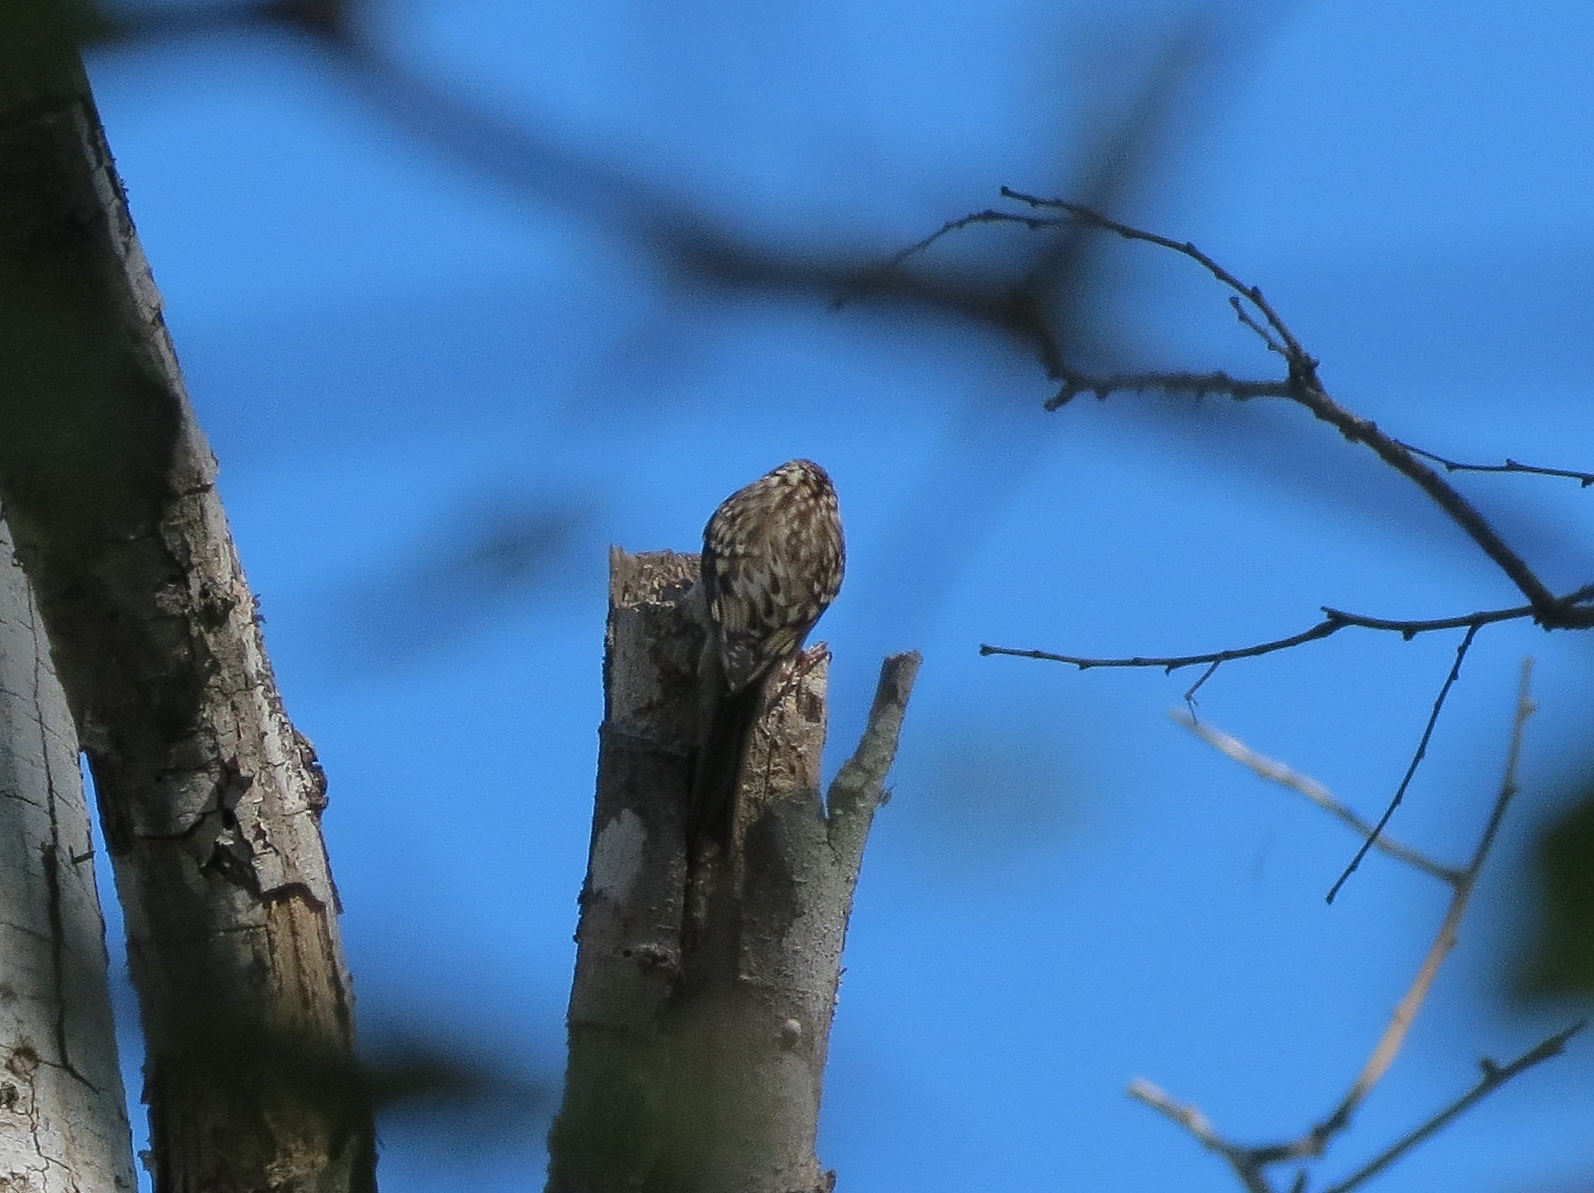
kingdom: Animalia
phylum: Chordata
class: Aves
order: Passeriformes
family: Certhiidae
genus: Certhia
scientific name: Certhia americana
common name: Brown creeper
